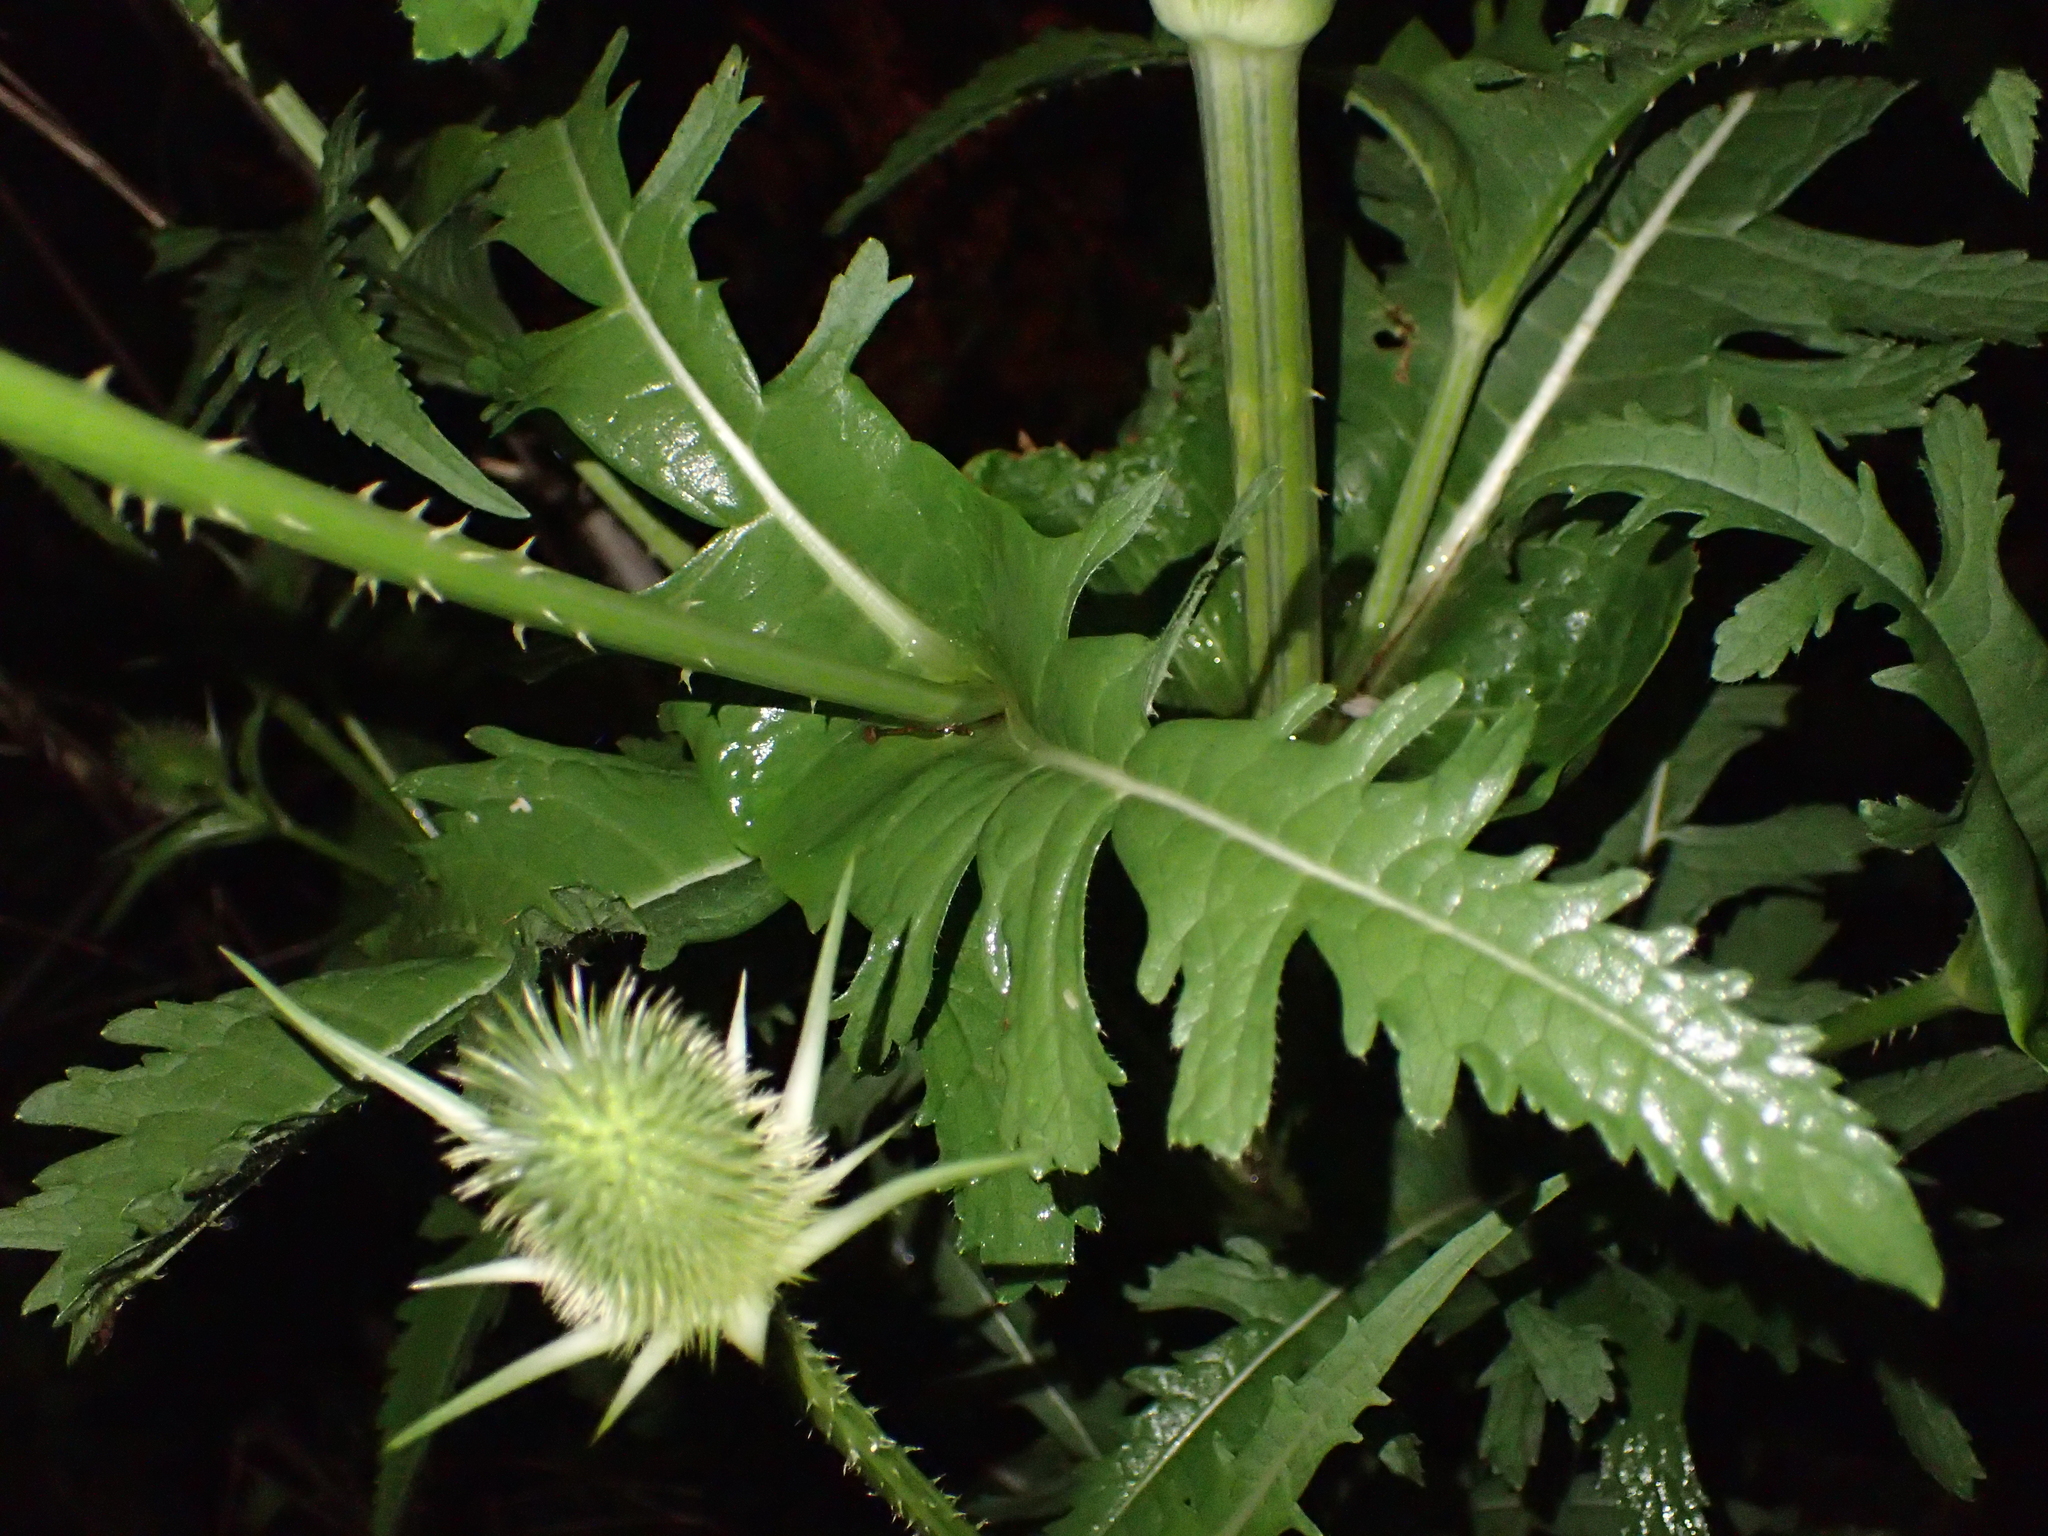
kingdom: Plantae
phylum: Tracheophyta
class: Magnoliopsida
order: Dipsacales
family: Caprifoliaceae
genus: Dipsacus
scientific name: Dipsacus laciniatus
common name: Cut-leaved teasel
